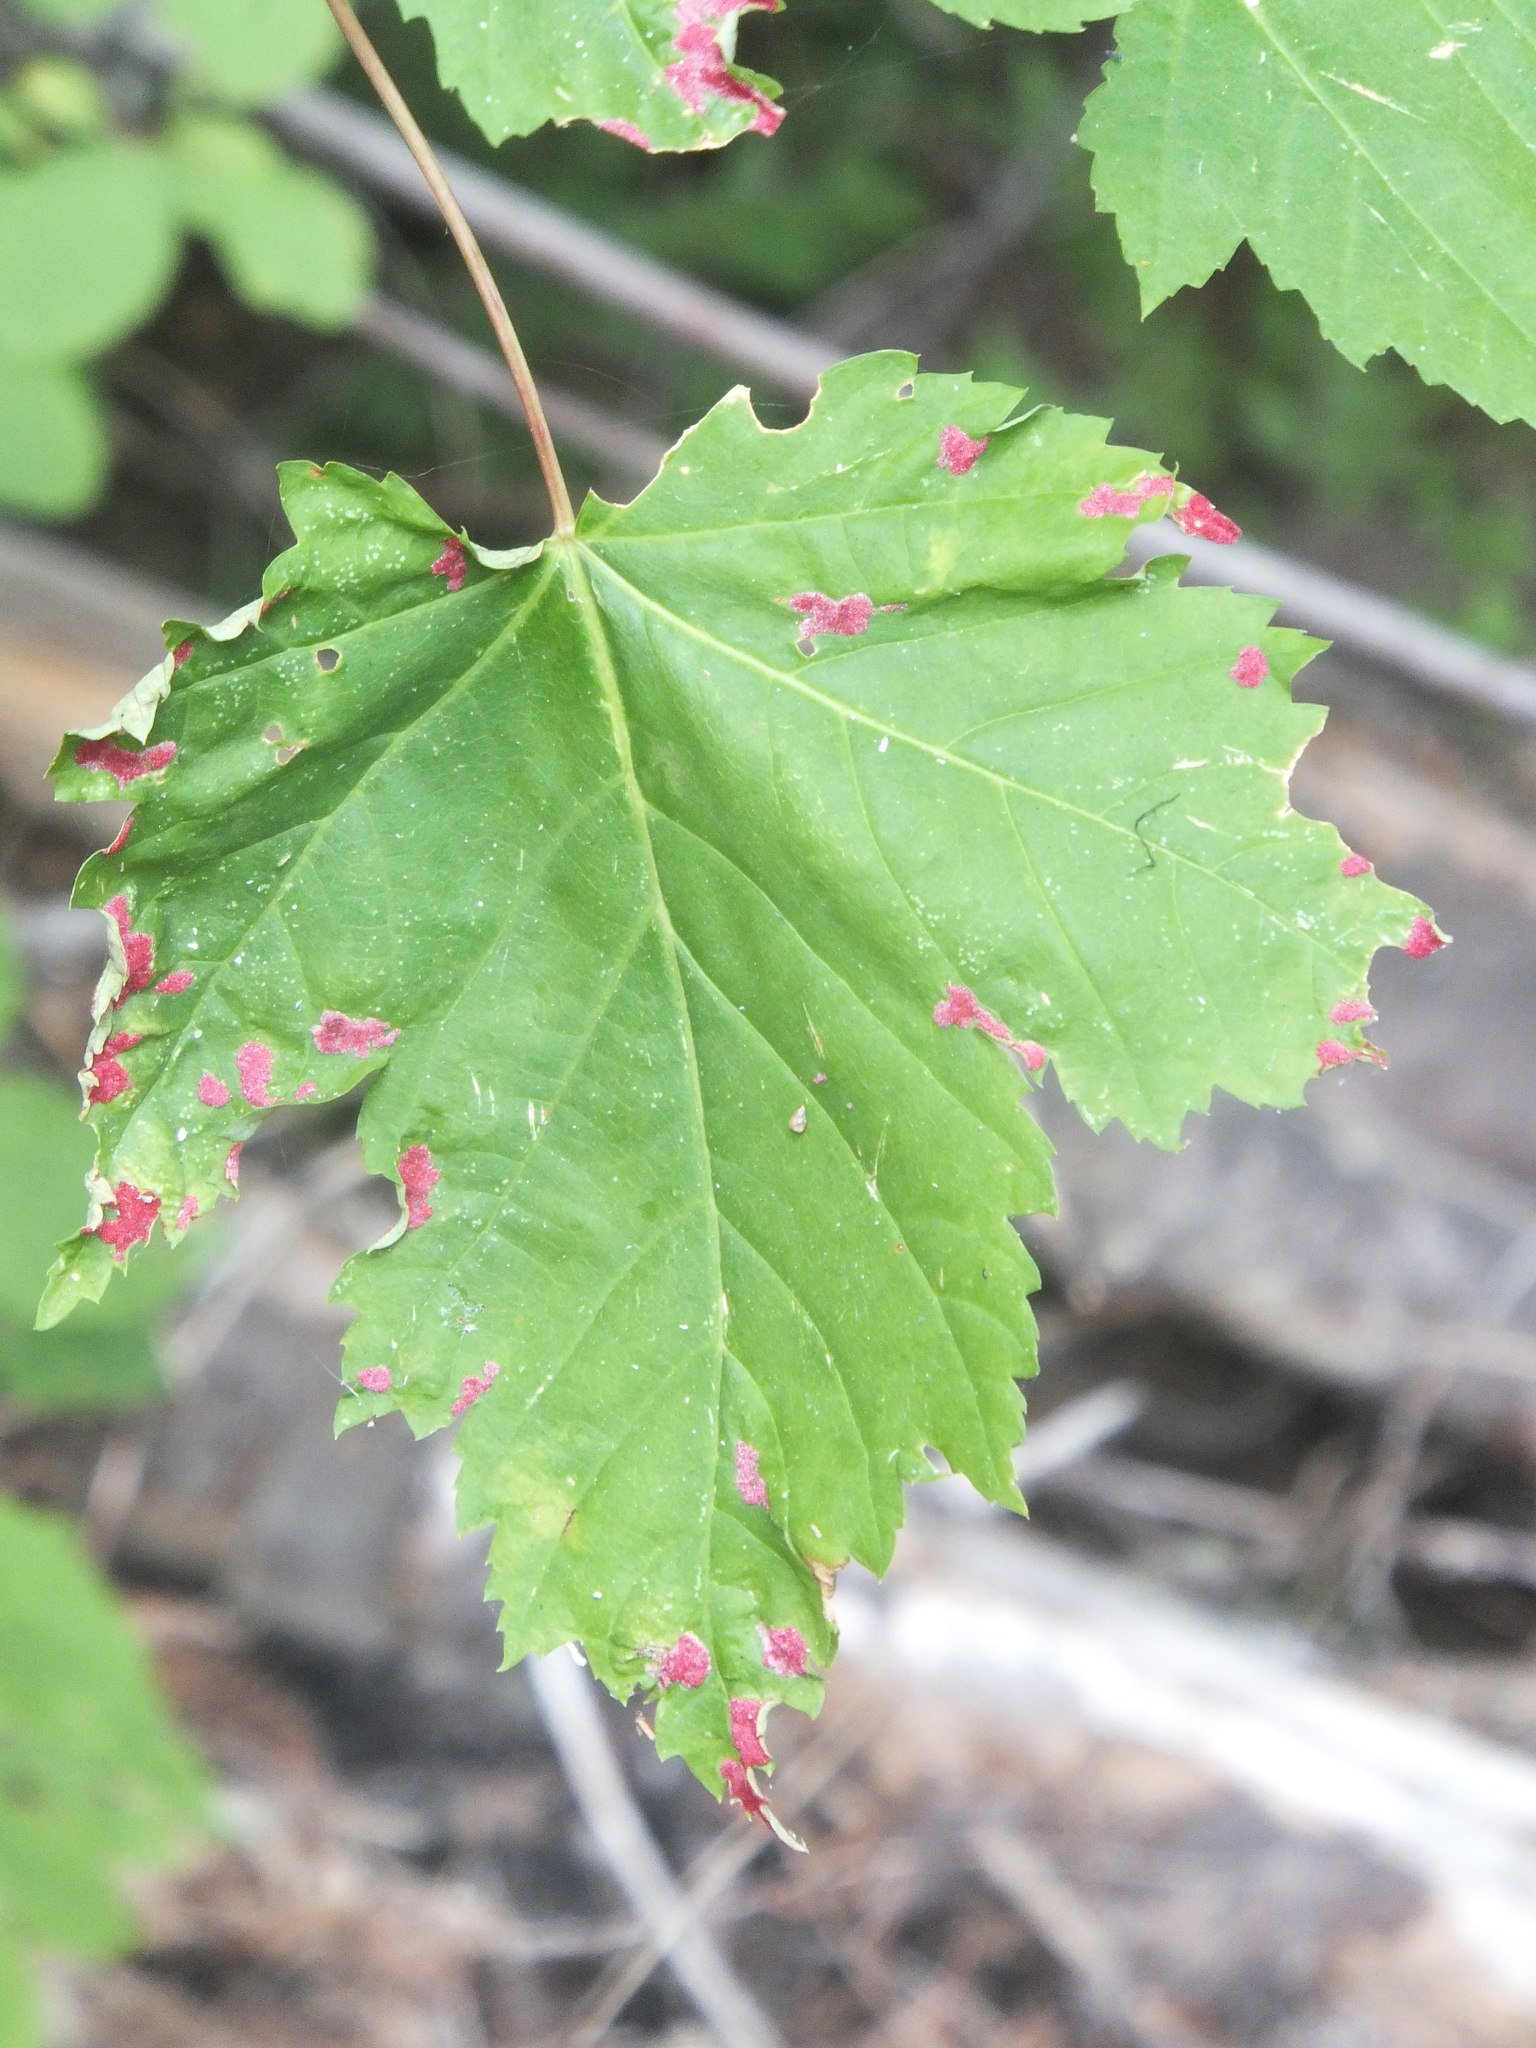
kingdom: Animalia
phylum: Arthropoda
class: Arachnida
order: Trombidiformes
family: Eriophyidae
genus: Aceria
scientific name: Aceria
